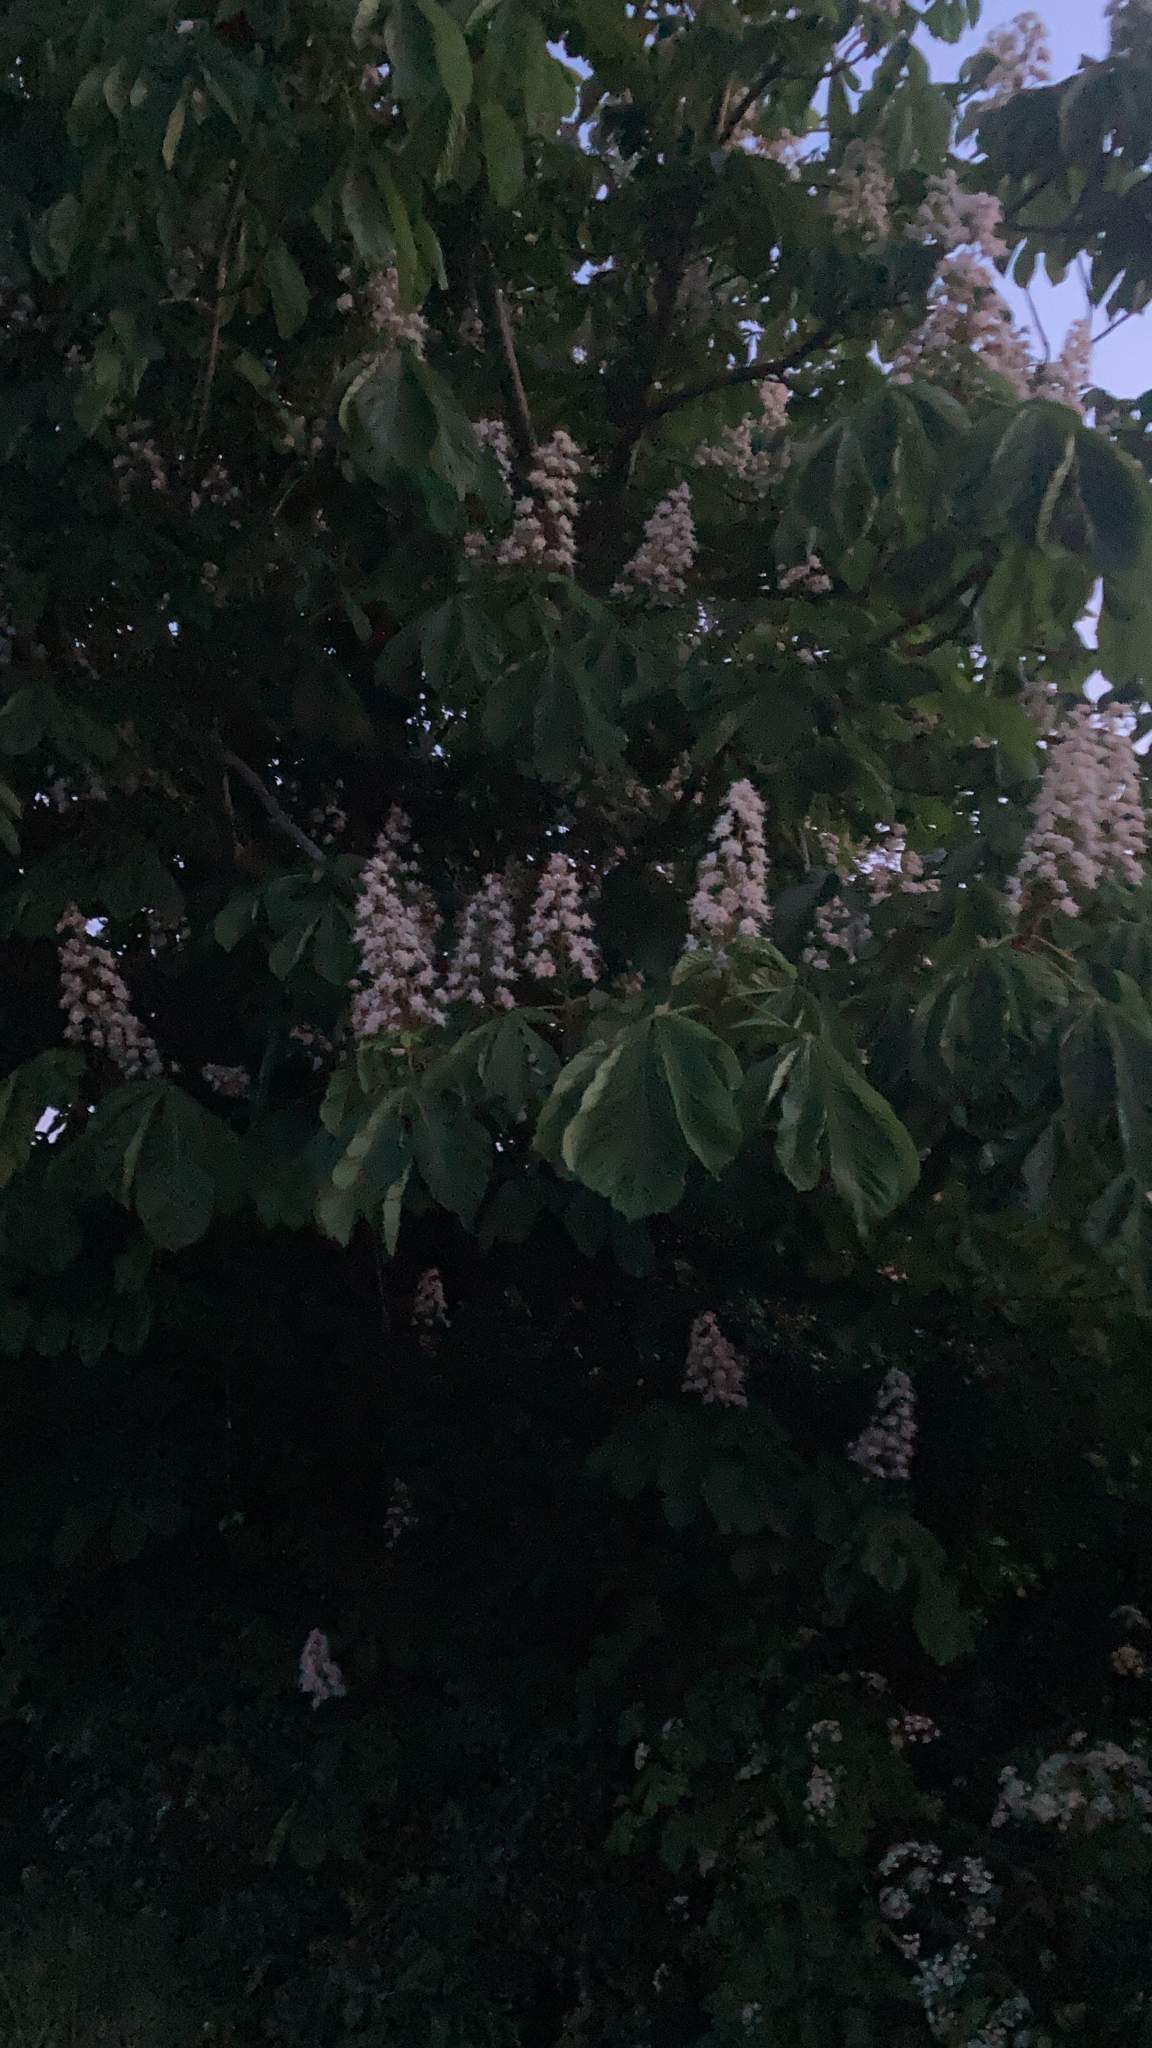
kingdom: Plantae
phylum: Tracheophyta
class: Magnoliopsida
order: Sapindales
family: Sapindaceae
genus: Aesculus
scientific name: Aesculus hippocastanum
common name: Horse-chestnut
